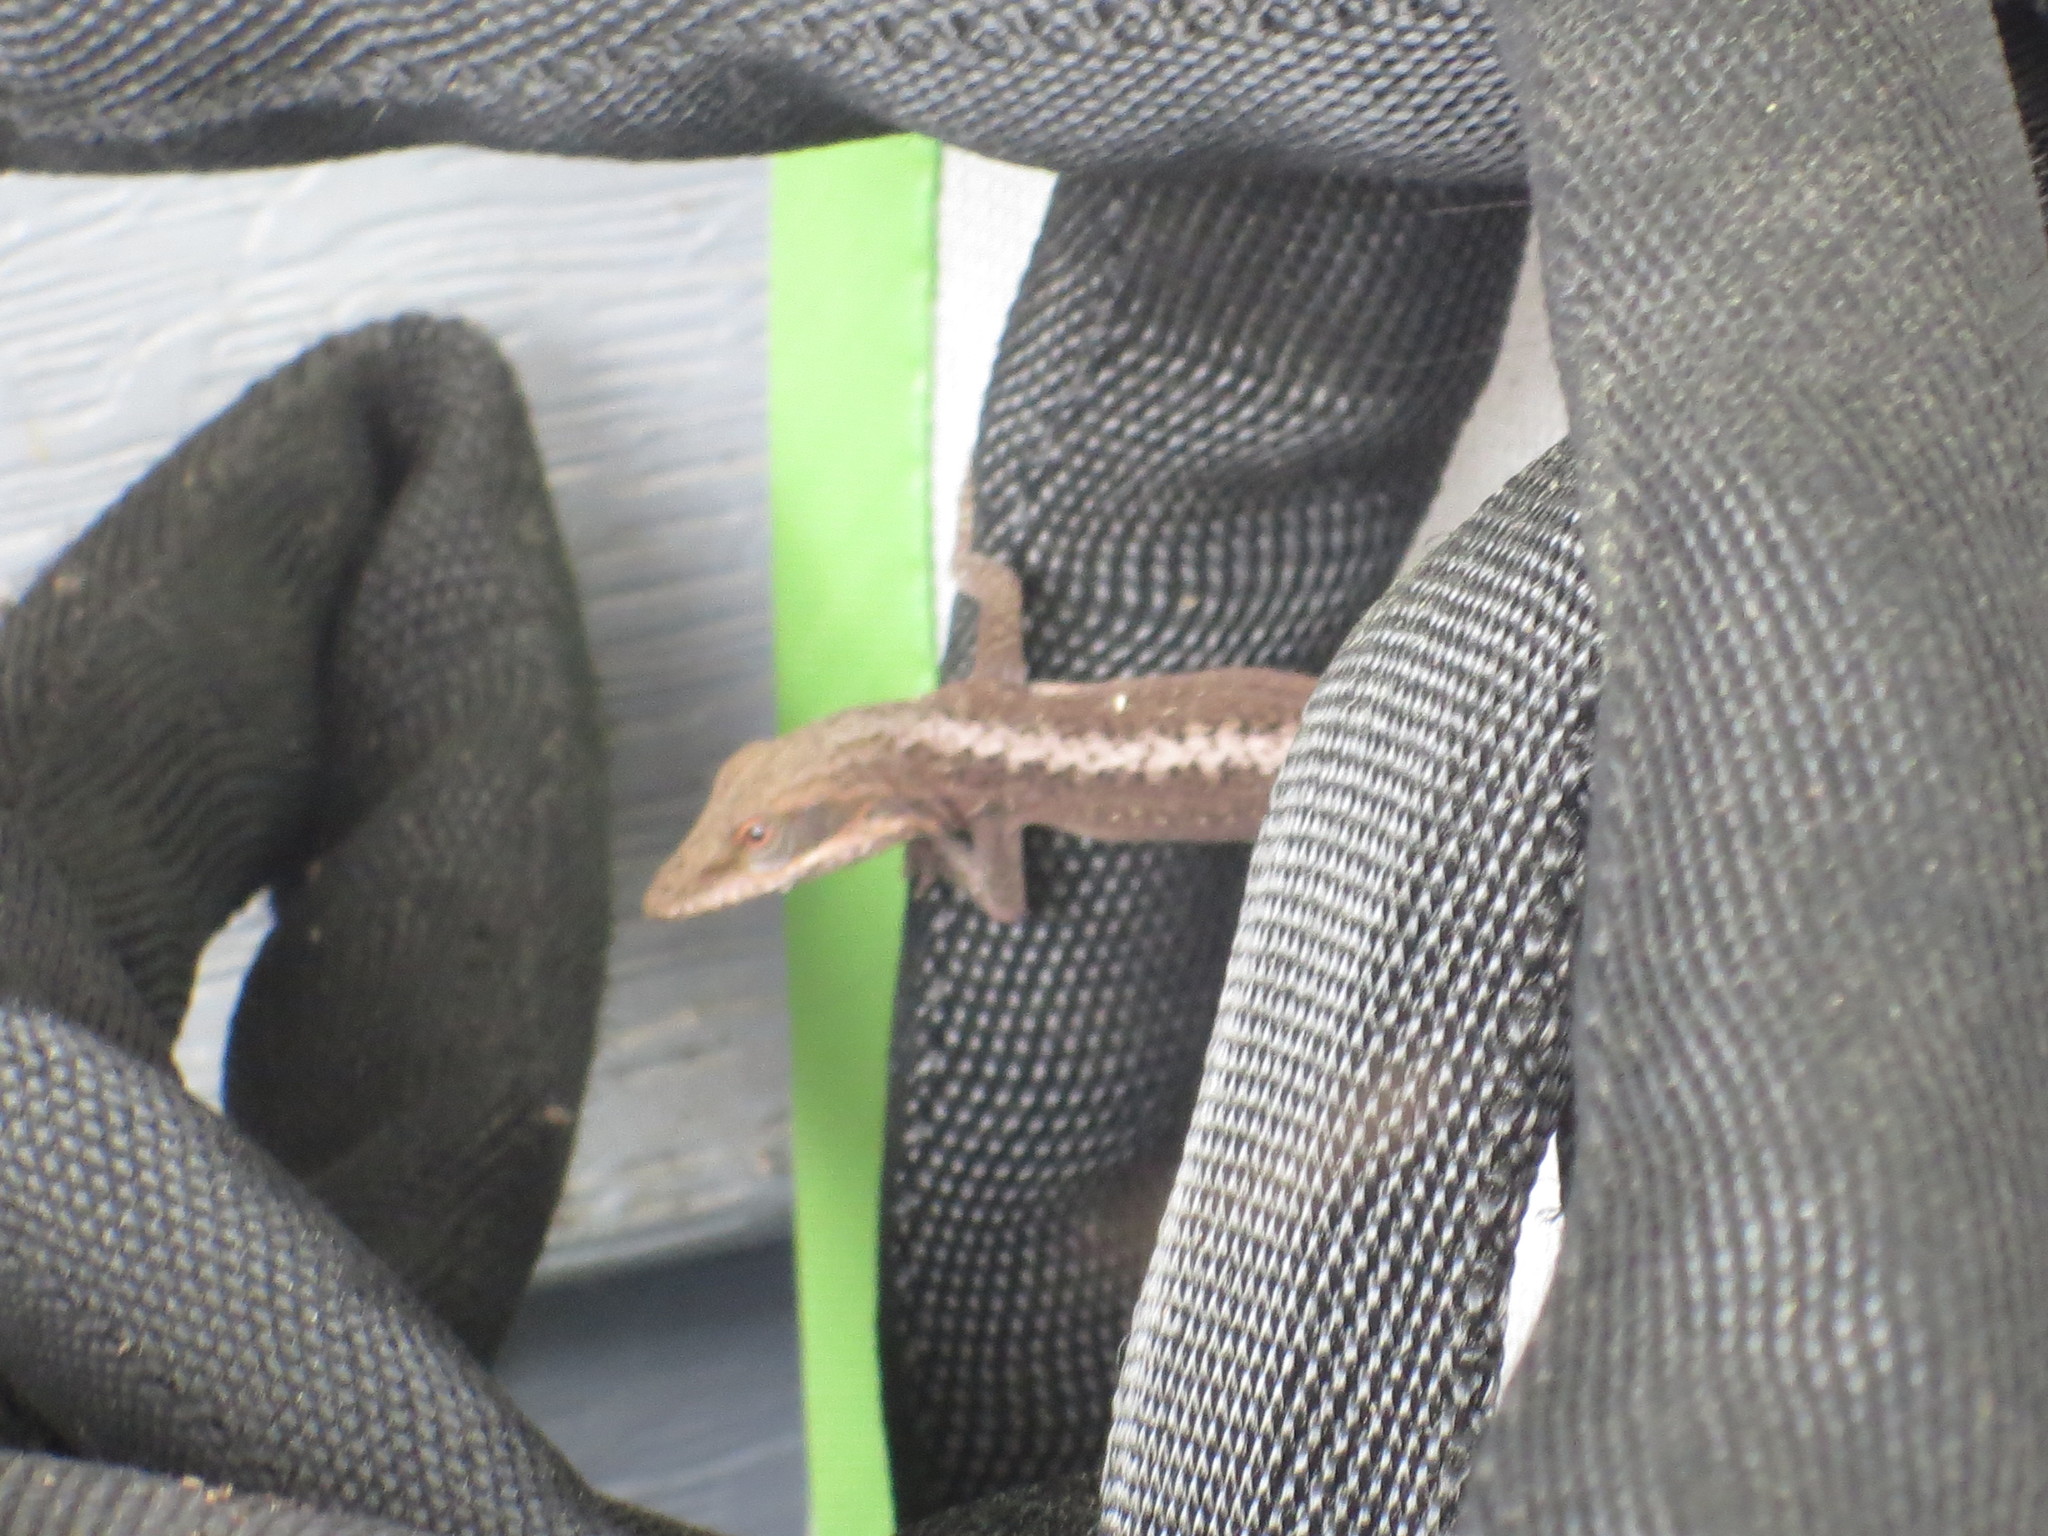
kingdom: Animalia
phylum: Chordata
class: Squamata
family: Dactyloidae
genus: Anolis
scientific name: Anolis carolinensis
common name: Green anole
